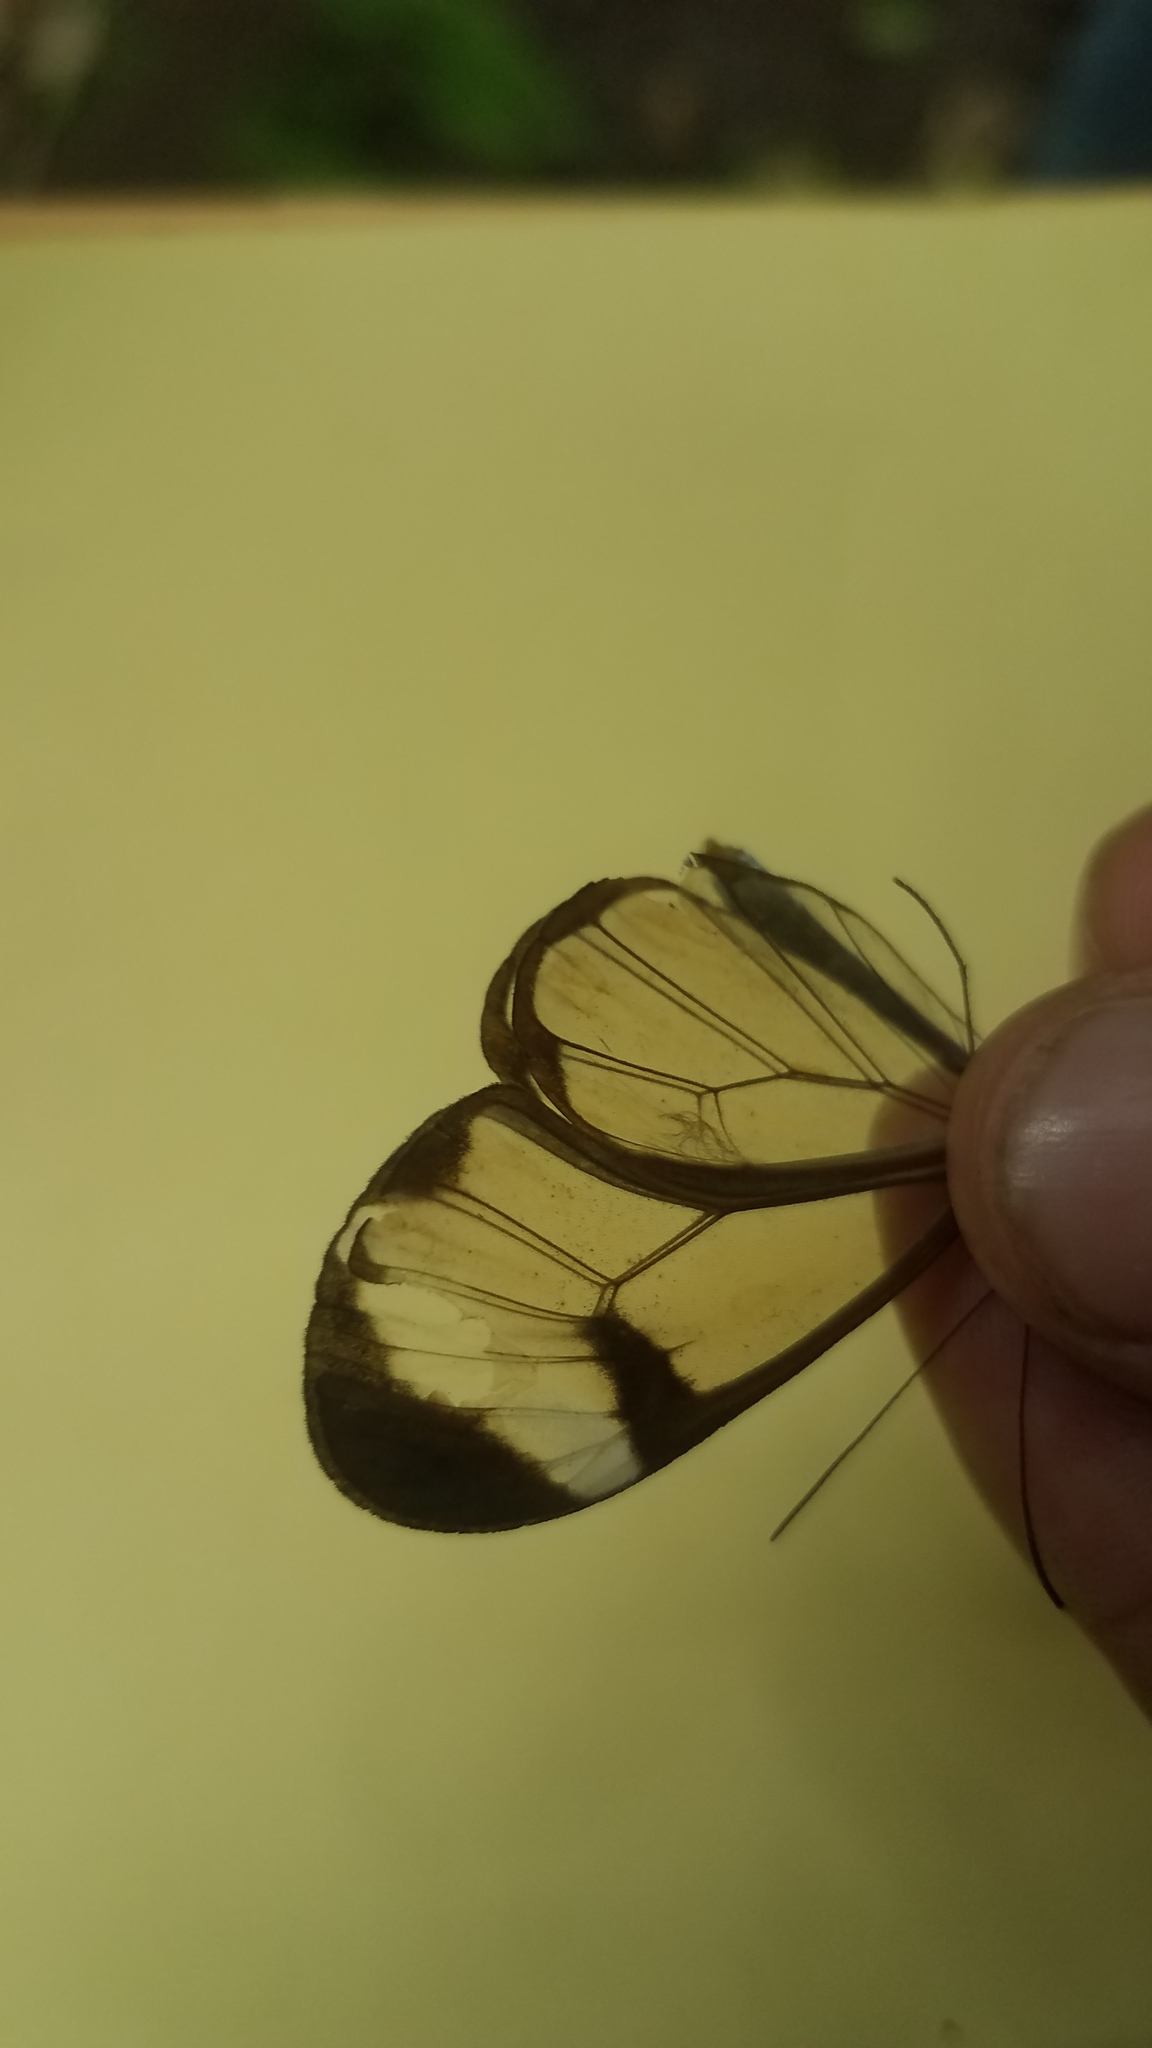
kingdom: Animalia
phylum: Arthropoda
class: Insecta
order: Lepidoptera
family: Nymphalidae
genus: Greta
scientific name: Greta morgane
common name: Thick-tipped greta
